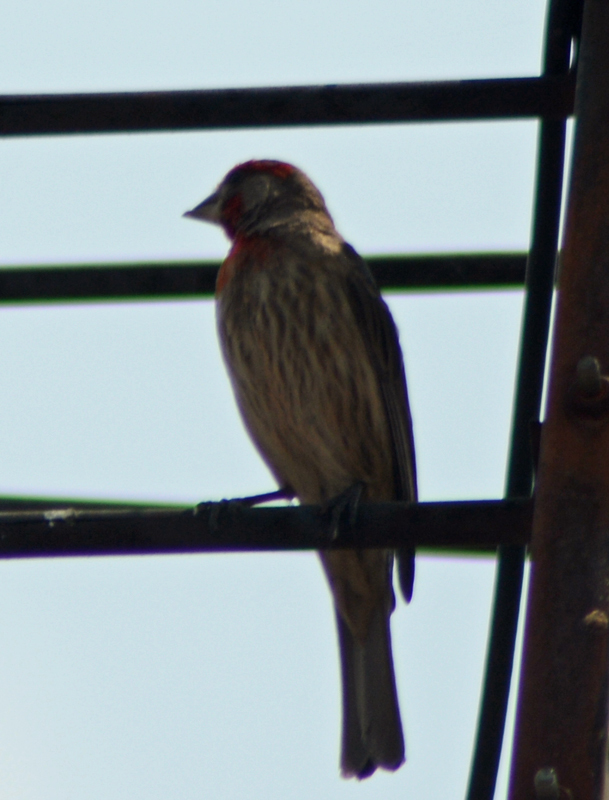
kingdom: Animalia
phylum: Chordata
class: Aves
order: Passeriformes
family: Fringillidae
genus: Haemorhous
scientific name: Haemorhous mexicanus
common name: House finch
